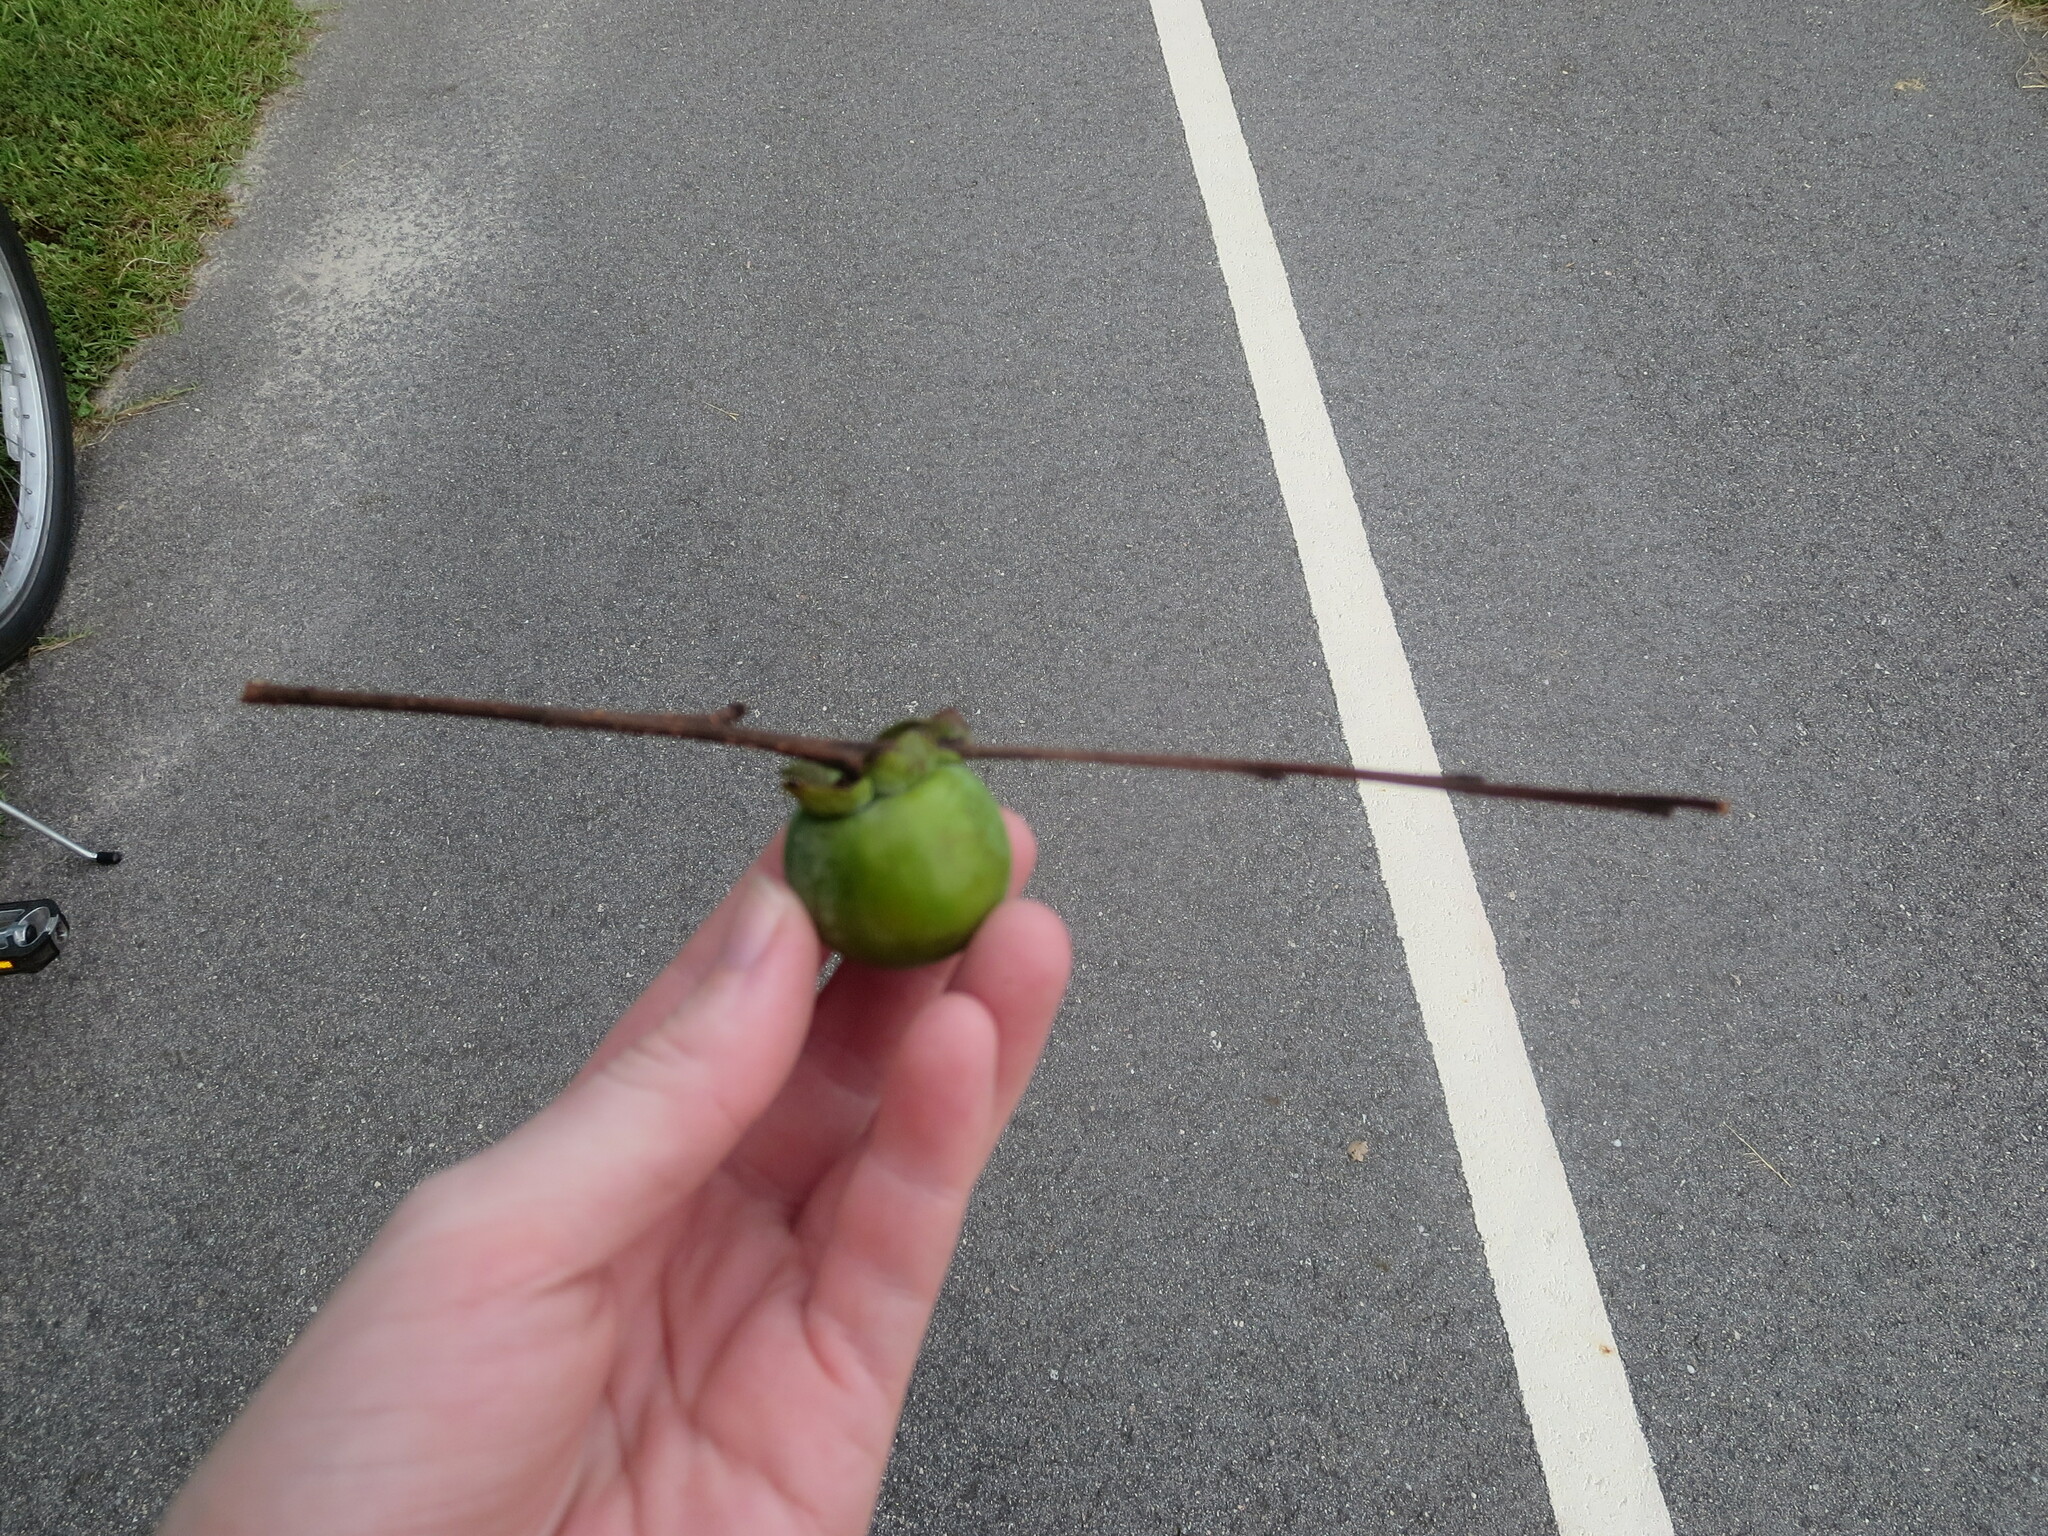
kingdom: Plantae
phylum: Tracheophyta
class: Magnoliopsida
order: Ericales
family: Ebenaceae
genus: Diospyros
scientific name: Diospyros virginiana
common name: Persimmon
